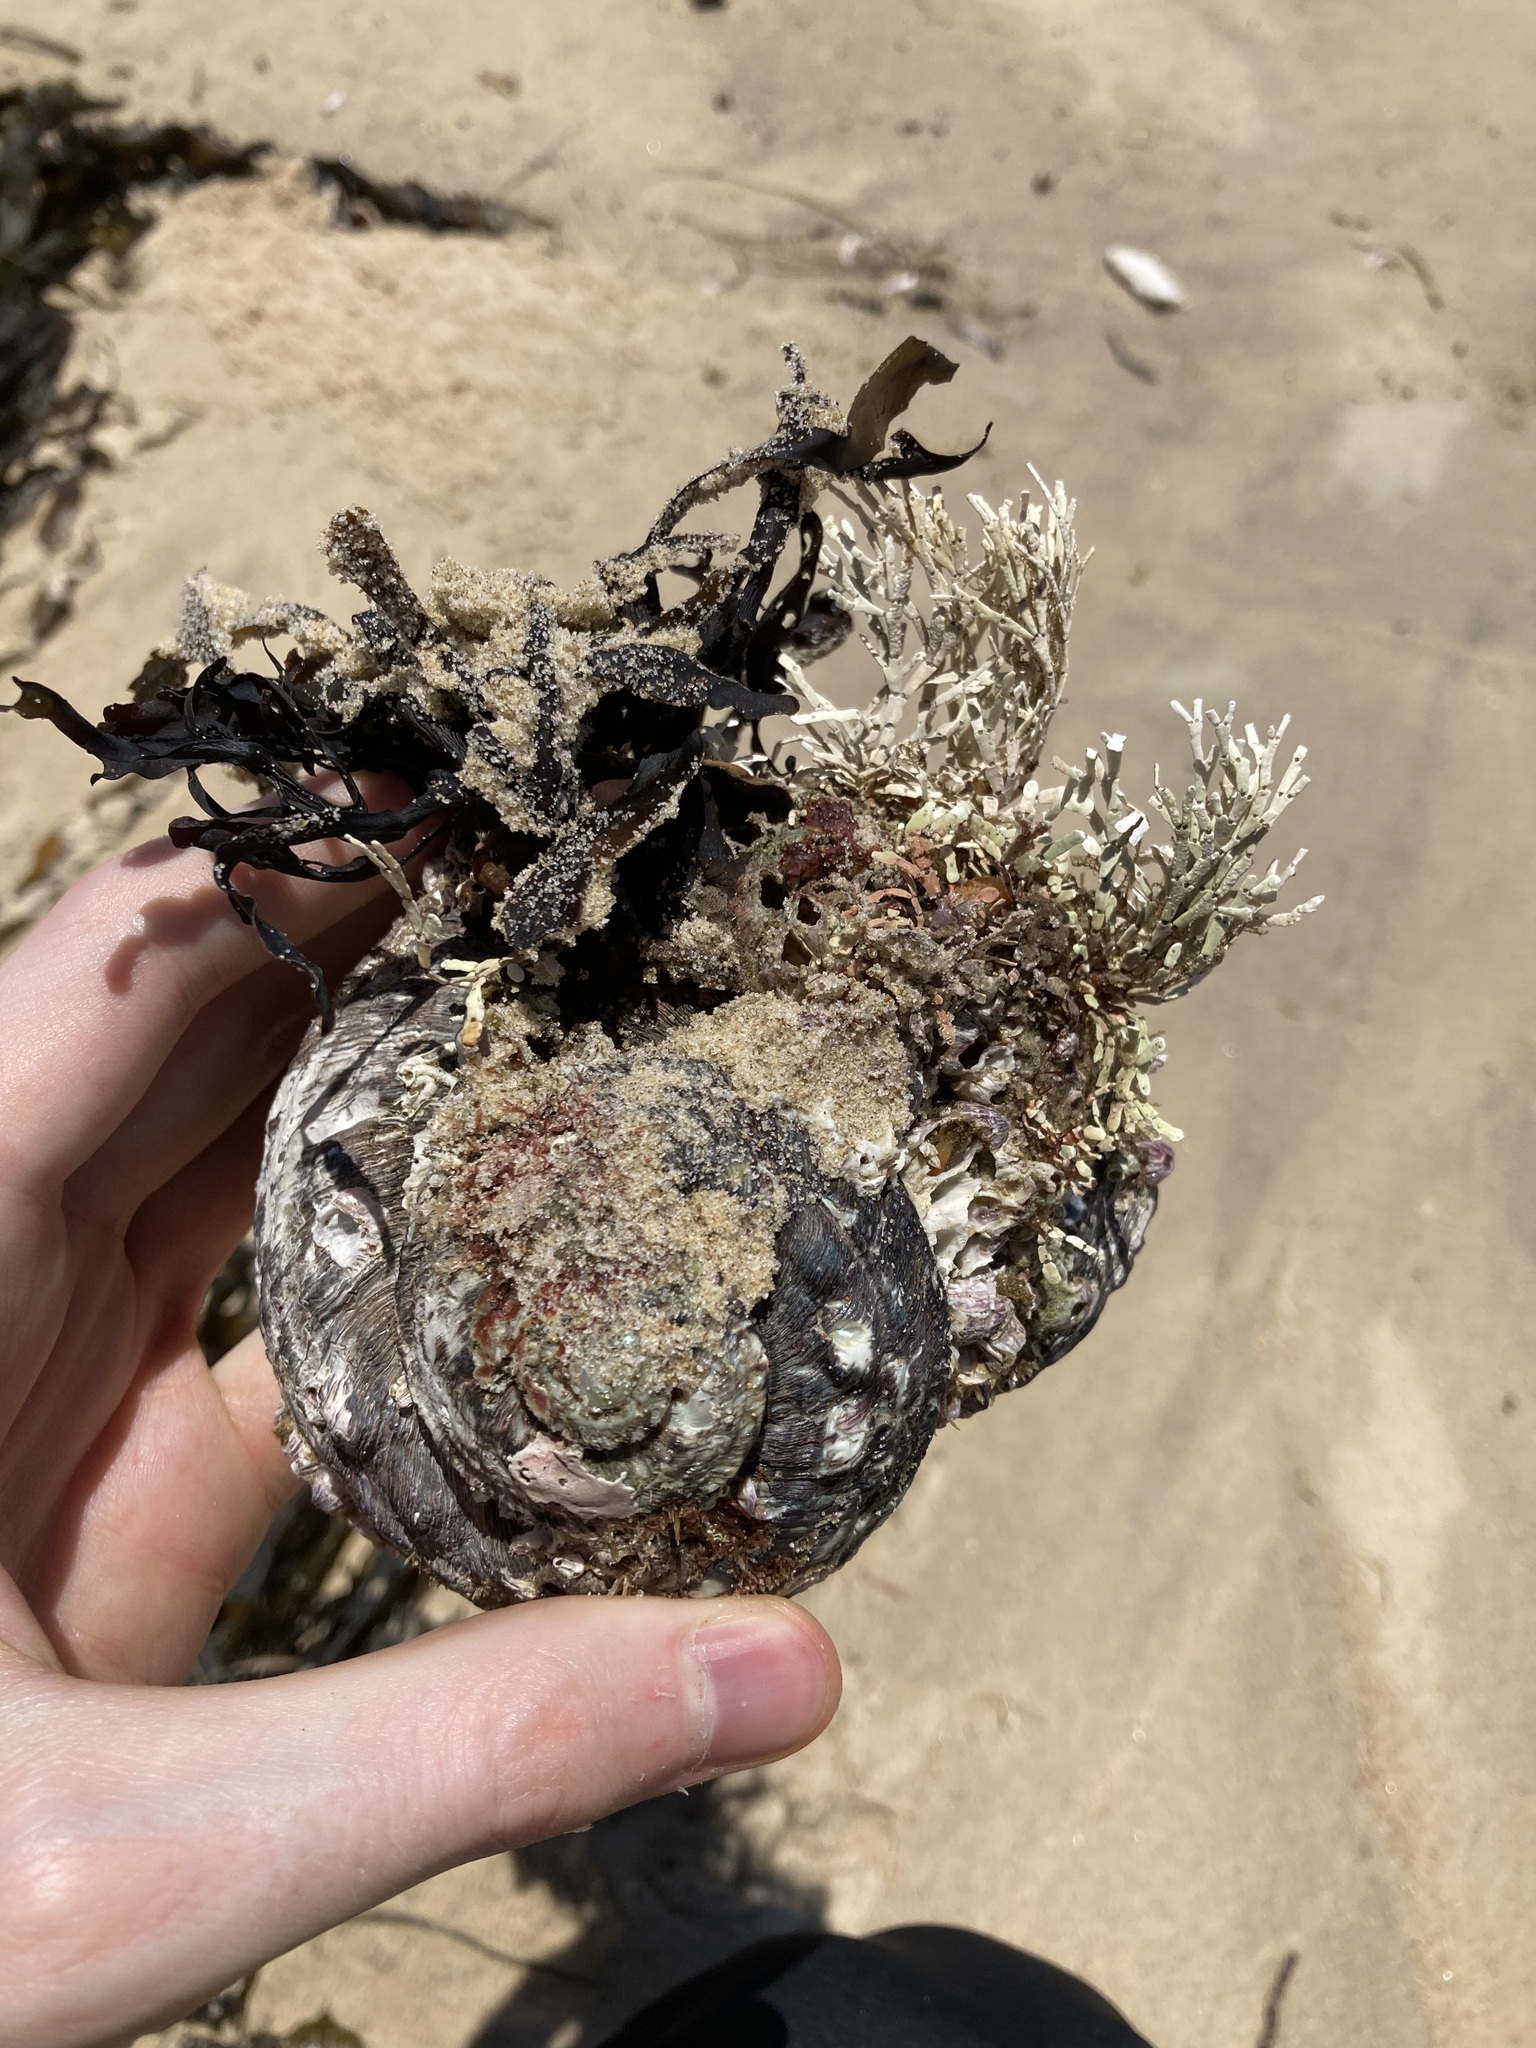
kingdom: Animalia
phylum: Mollusca
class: Gastropoda
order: Trochida
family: Turbinidae
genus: Lunella
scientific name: Lunella torquata
